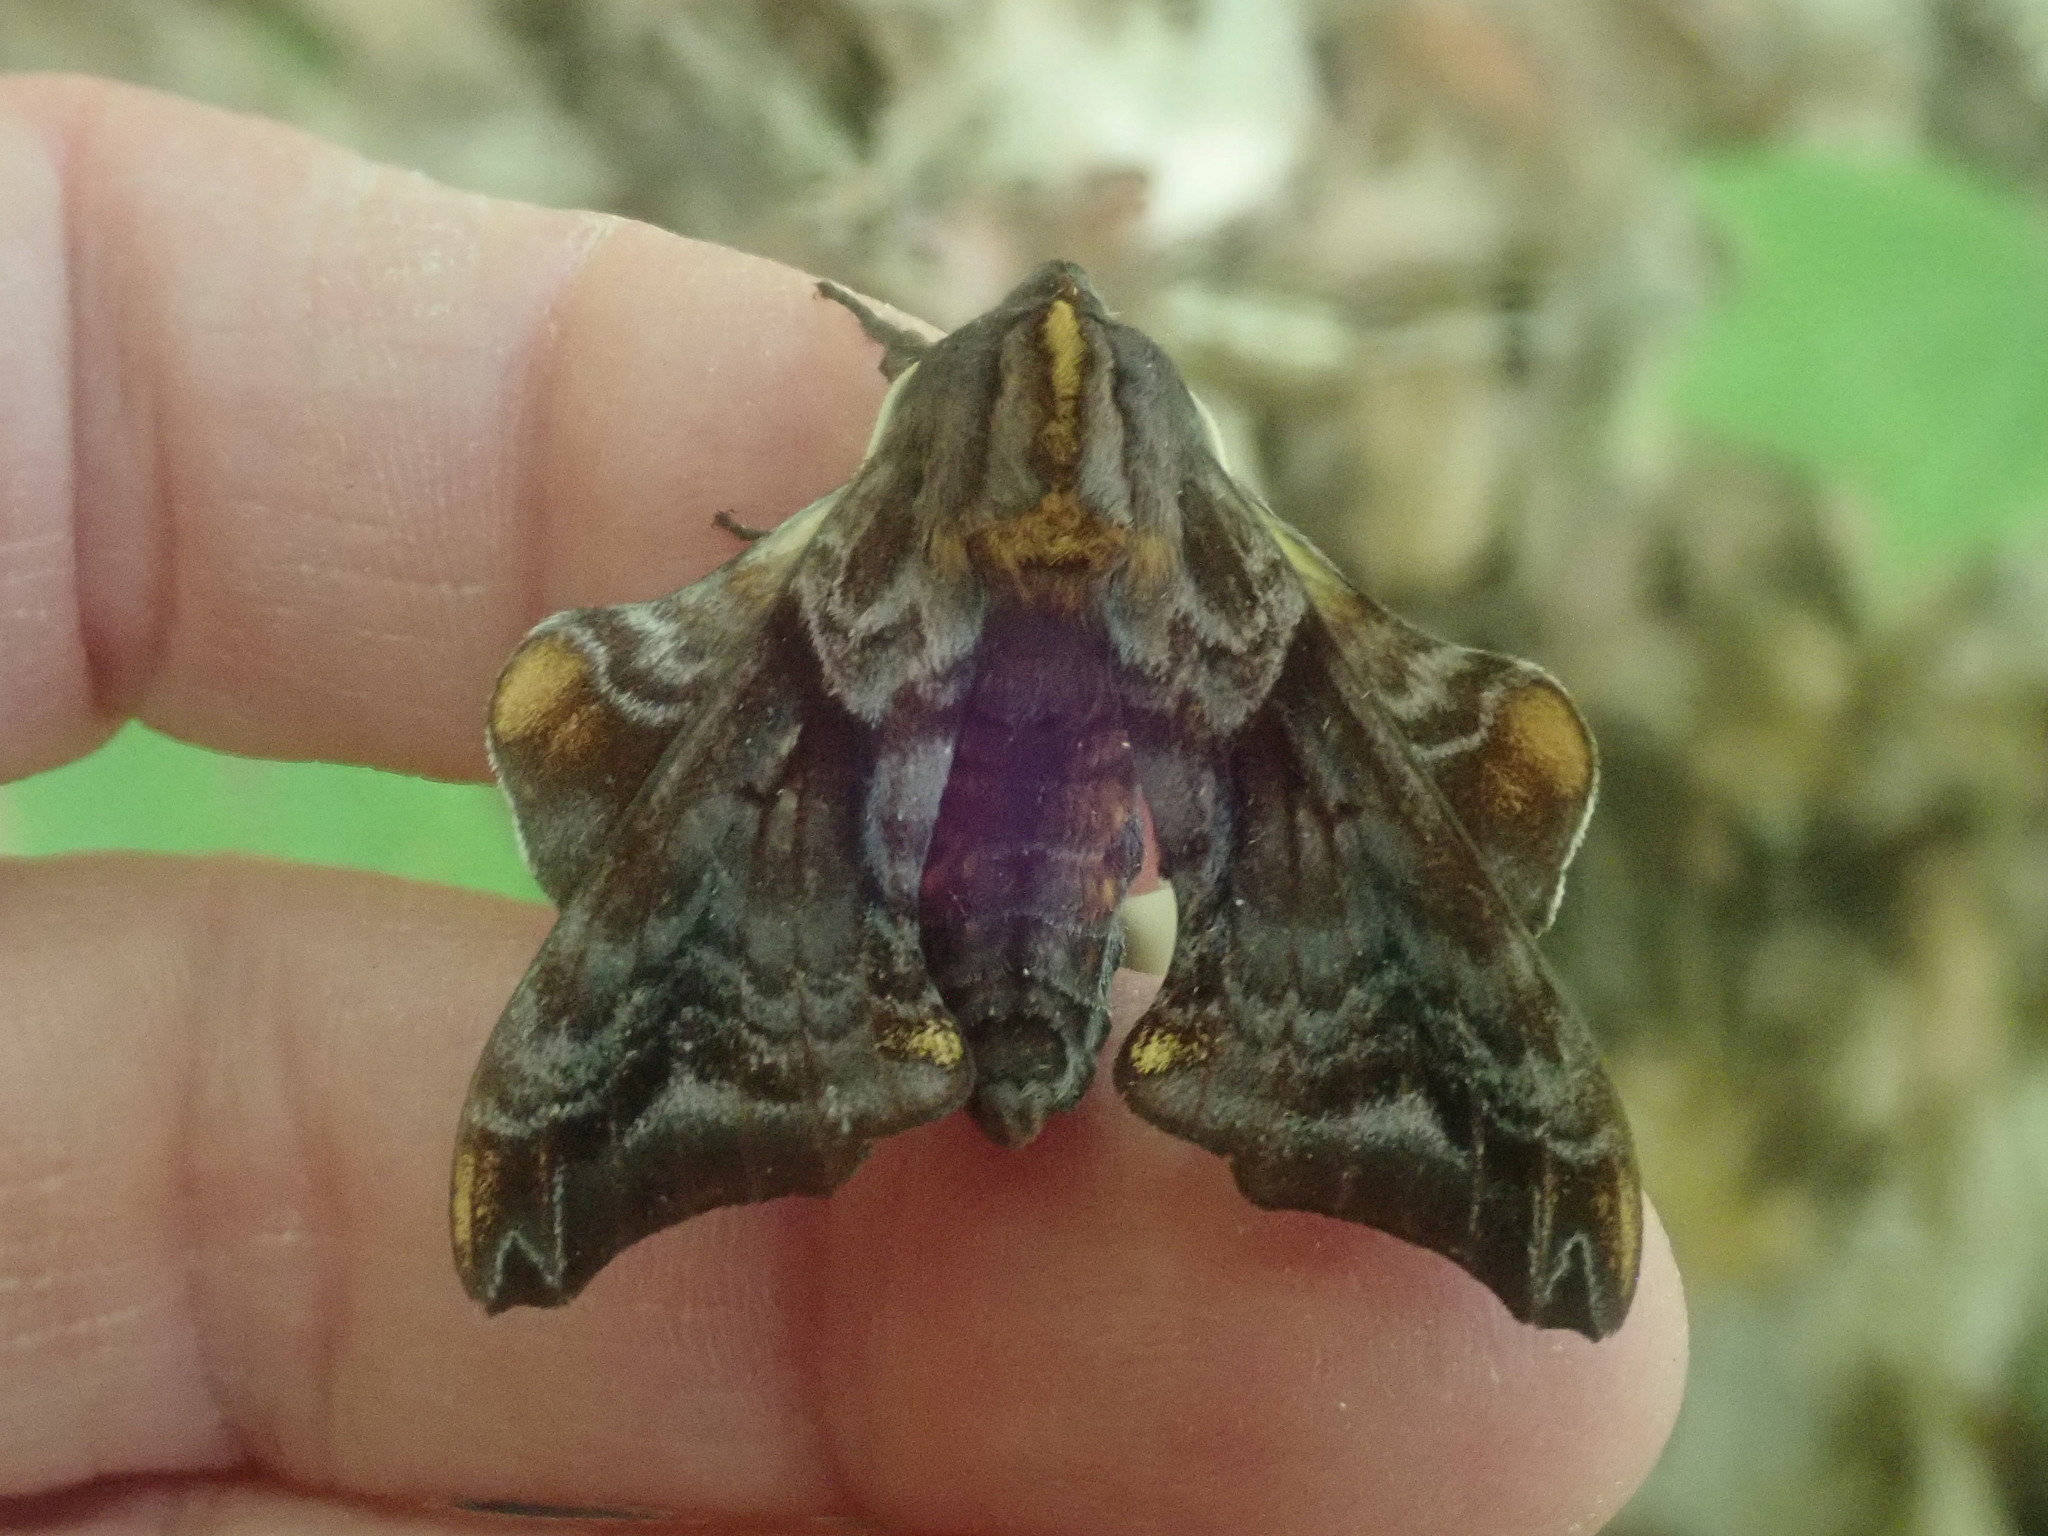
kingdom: Animalia
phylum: Arthropoda
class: Insecta
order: Lepidoptera
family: Sphingidae
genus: Paonias
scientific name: Paonias myops
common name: Small-eyed sphinx
